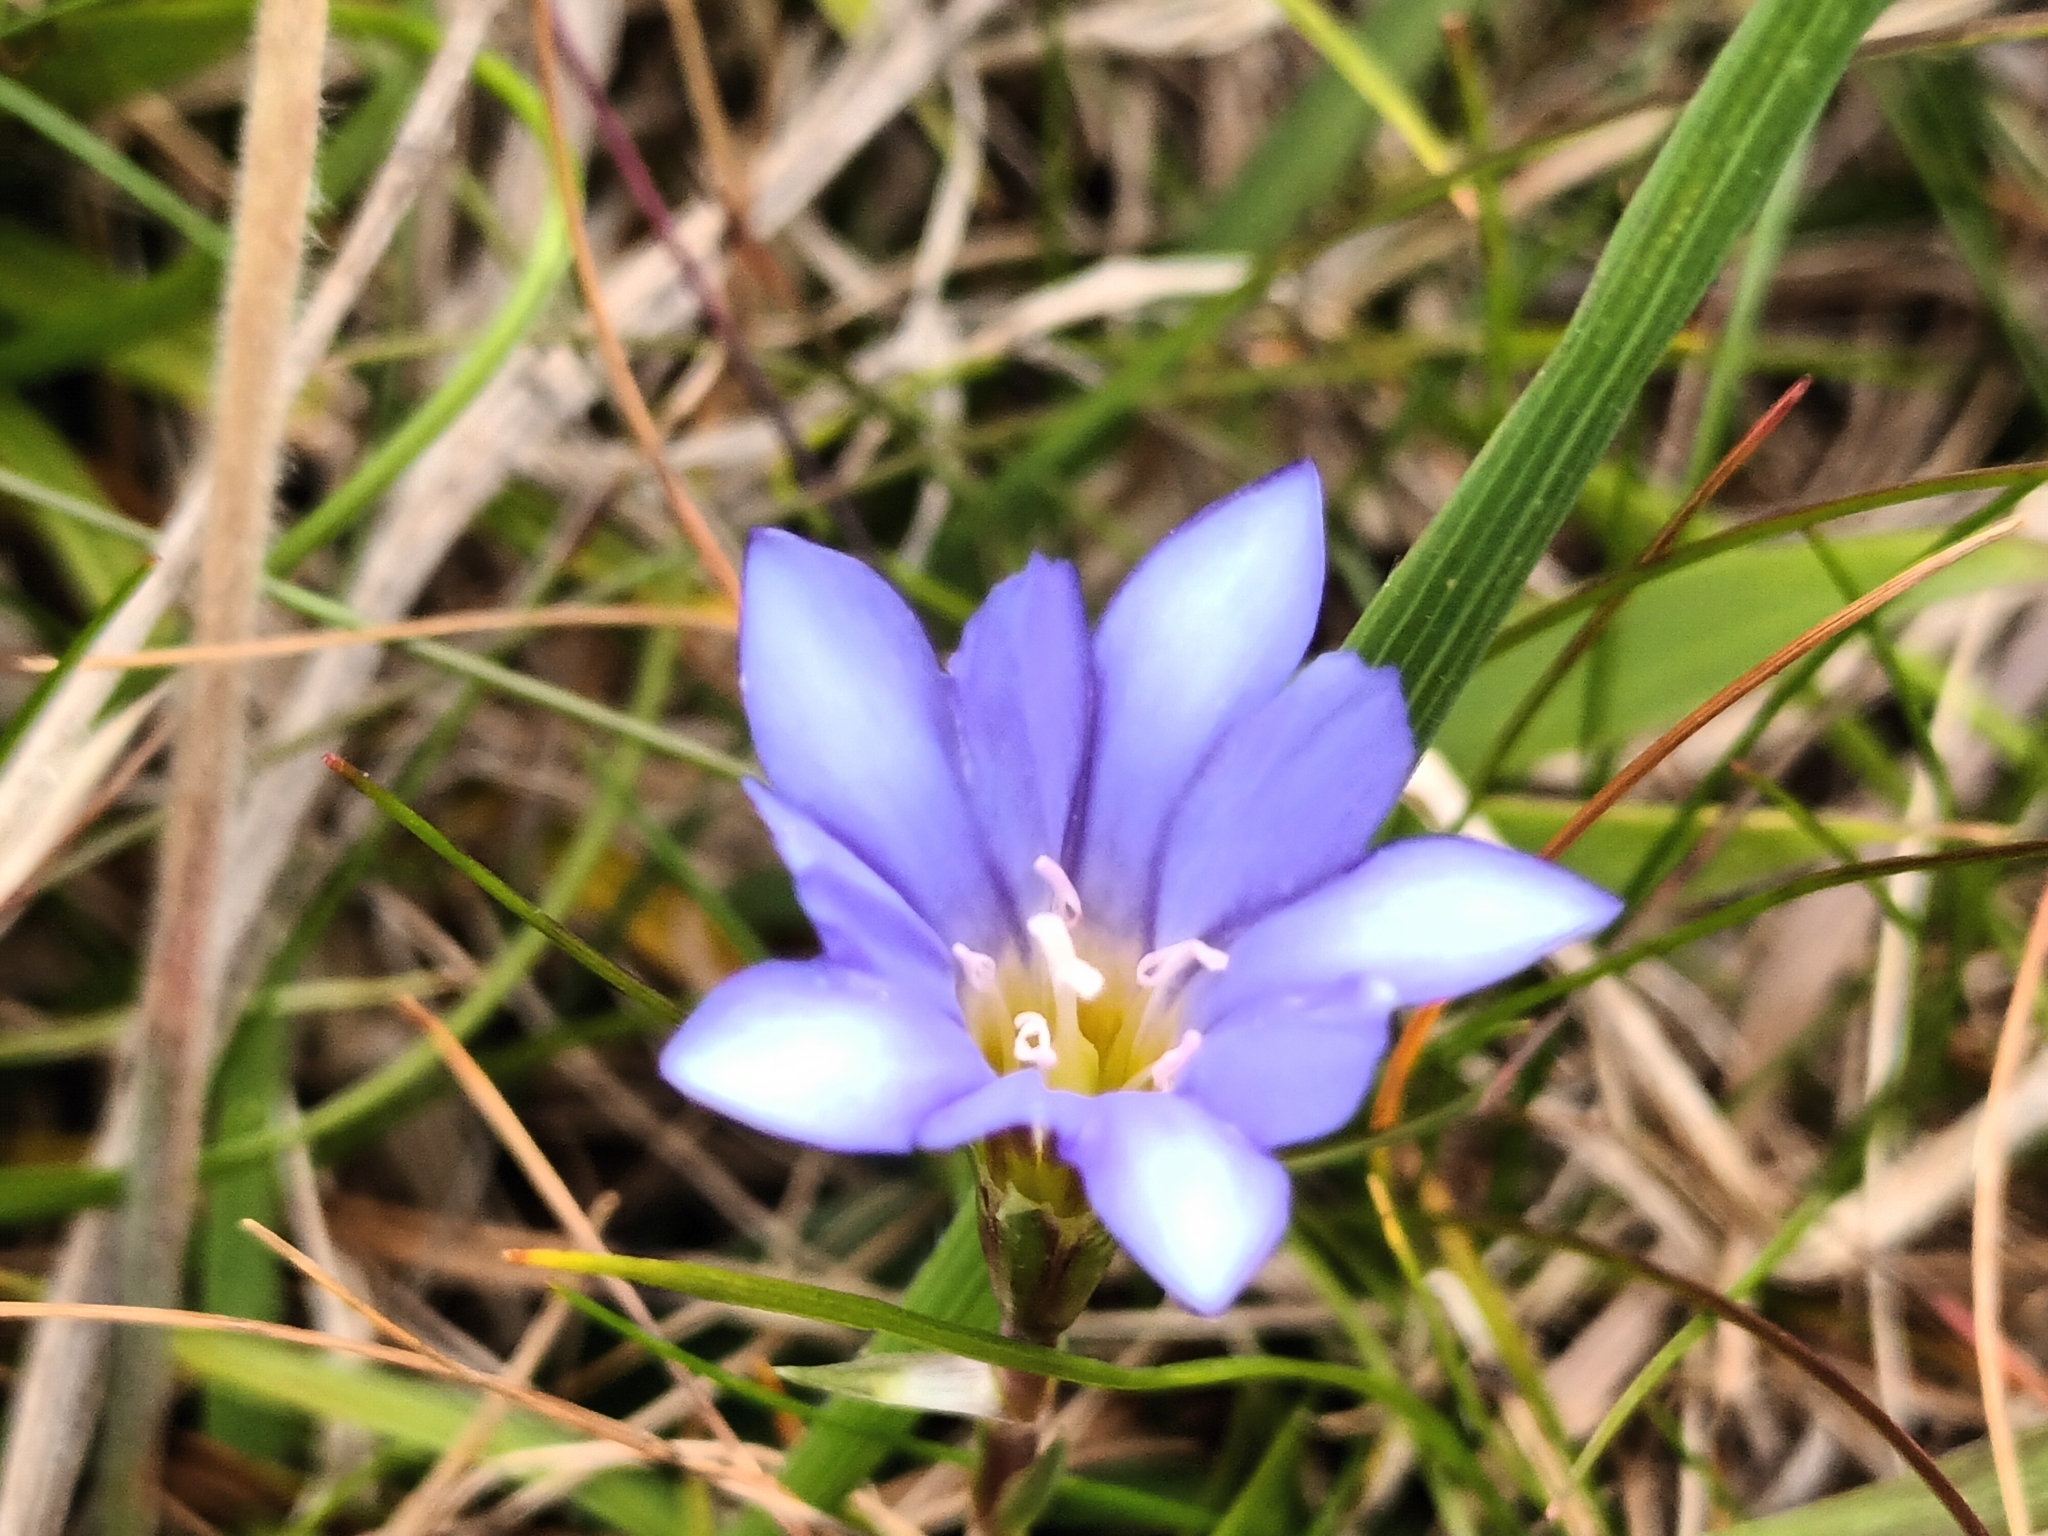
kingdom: Plantae
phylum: Tracheophyta
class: Magnoliopsida
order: Gentianales
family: Gentianaceae
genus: Gentiana
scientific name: Gentiana arisanensis
